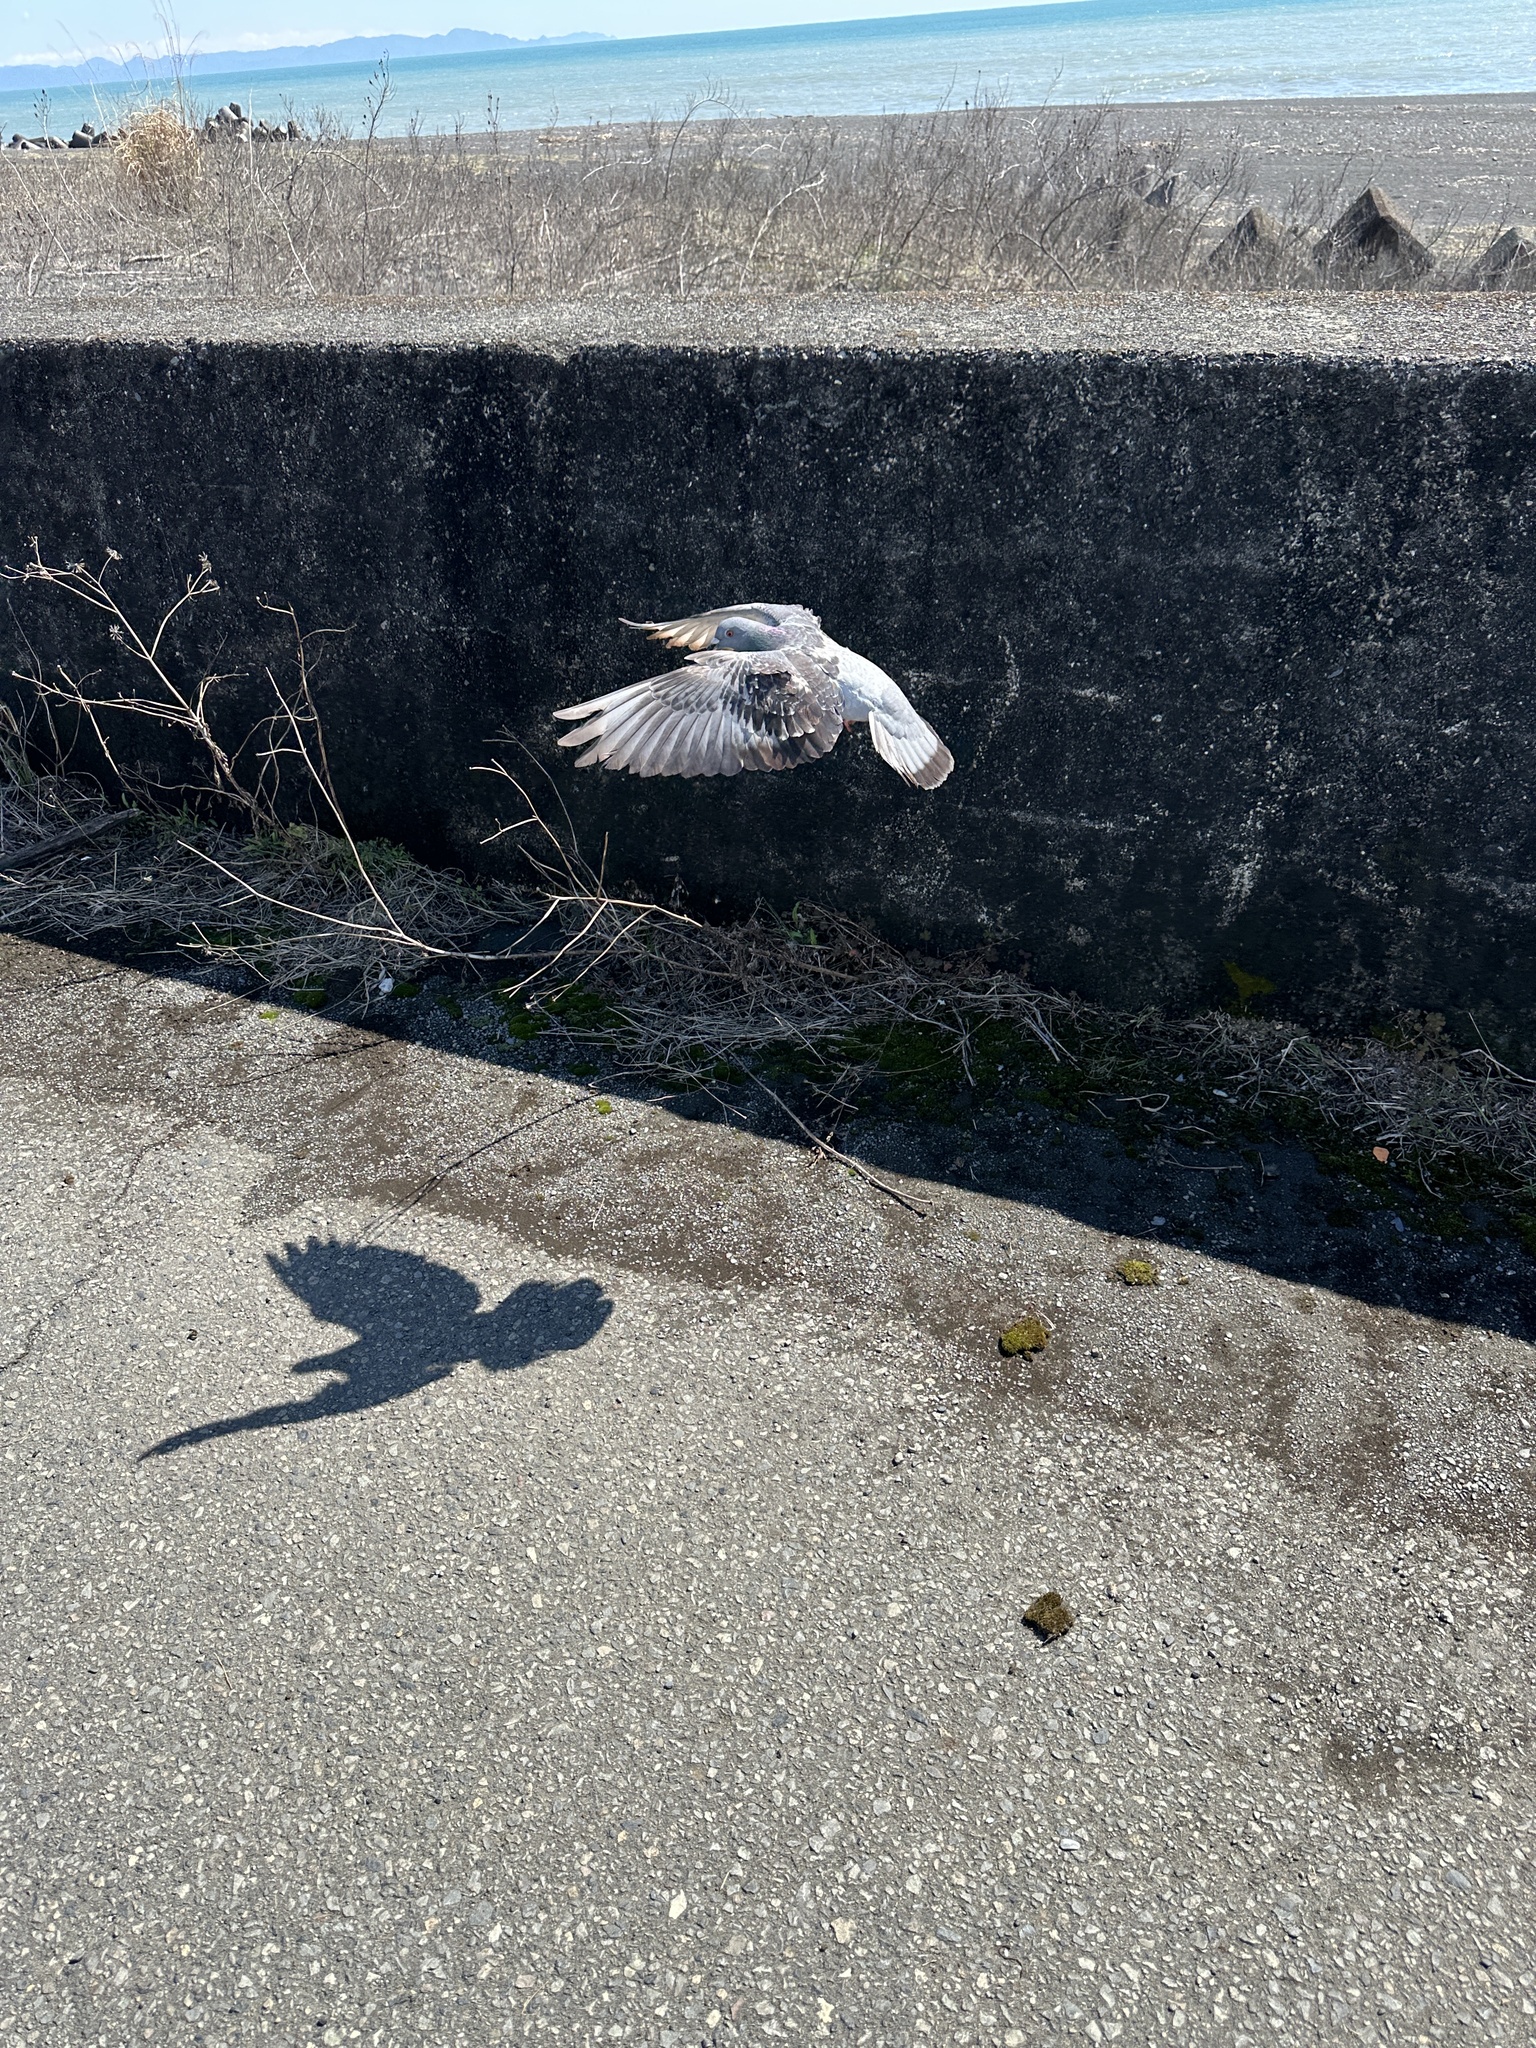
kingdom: Animalia
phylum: Chordata
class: Aves
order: Columbiformes
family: Columbidae
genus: Columba
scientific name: Columba livia
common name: Rock pigeon
